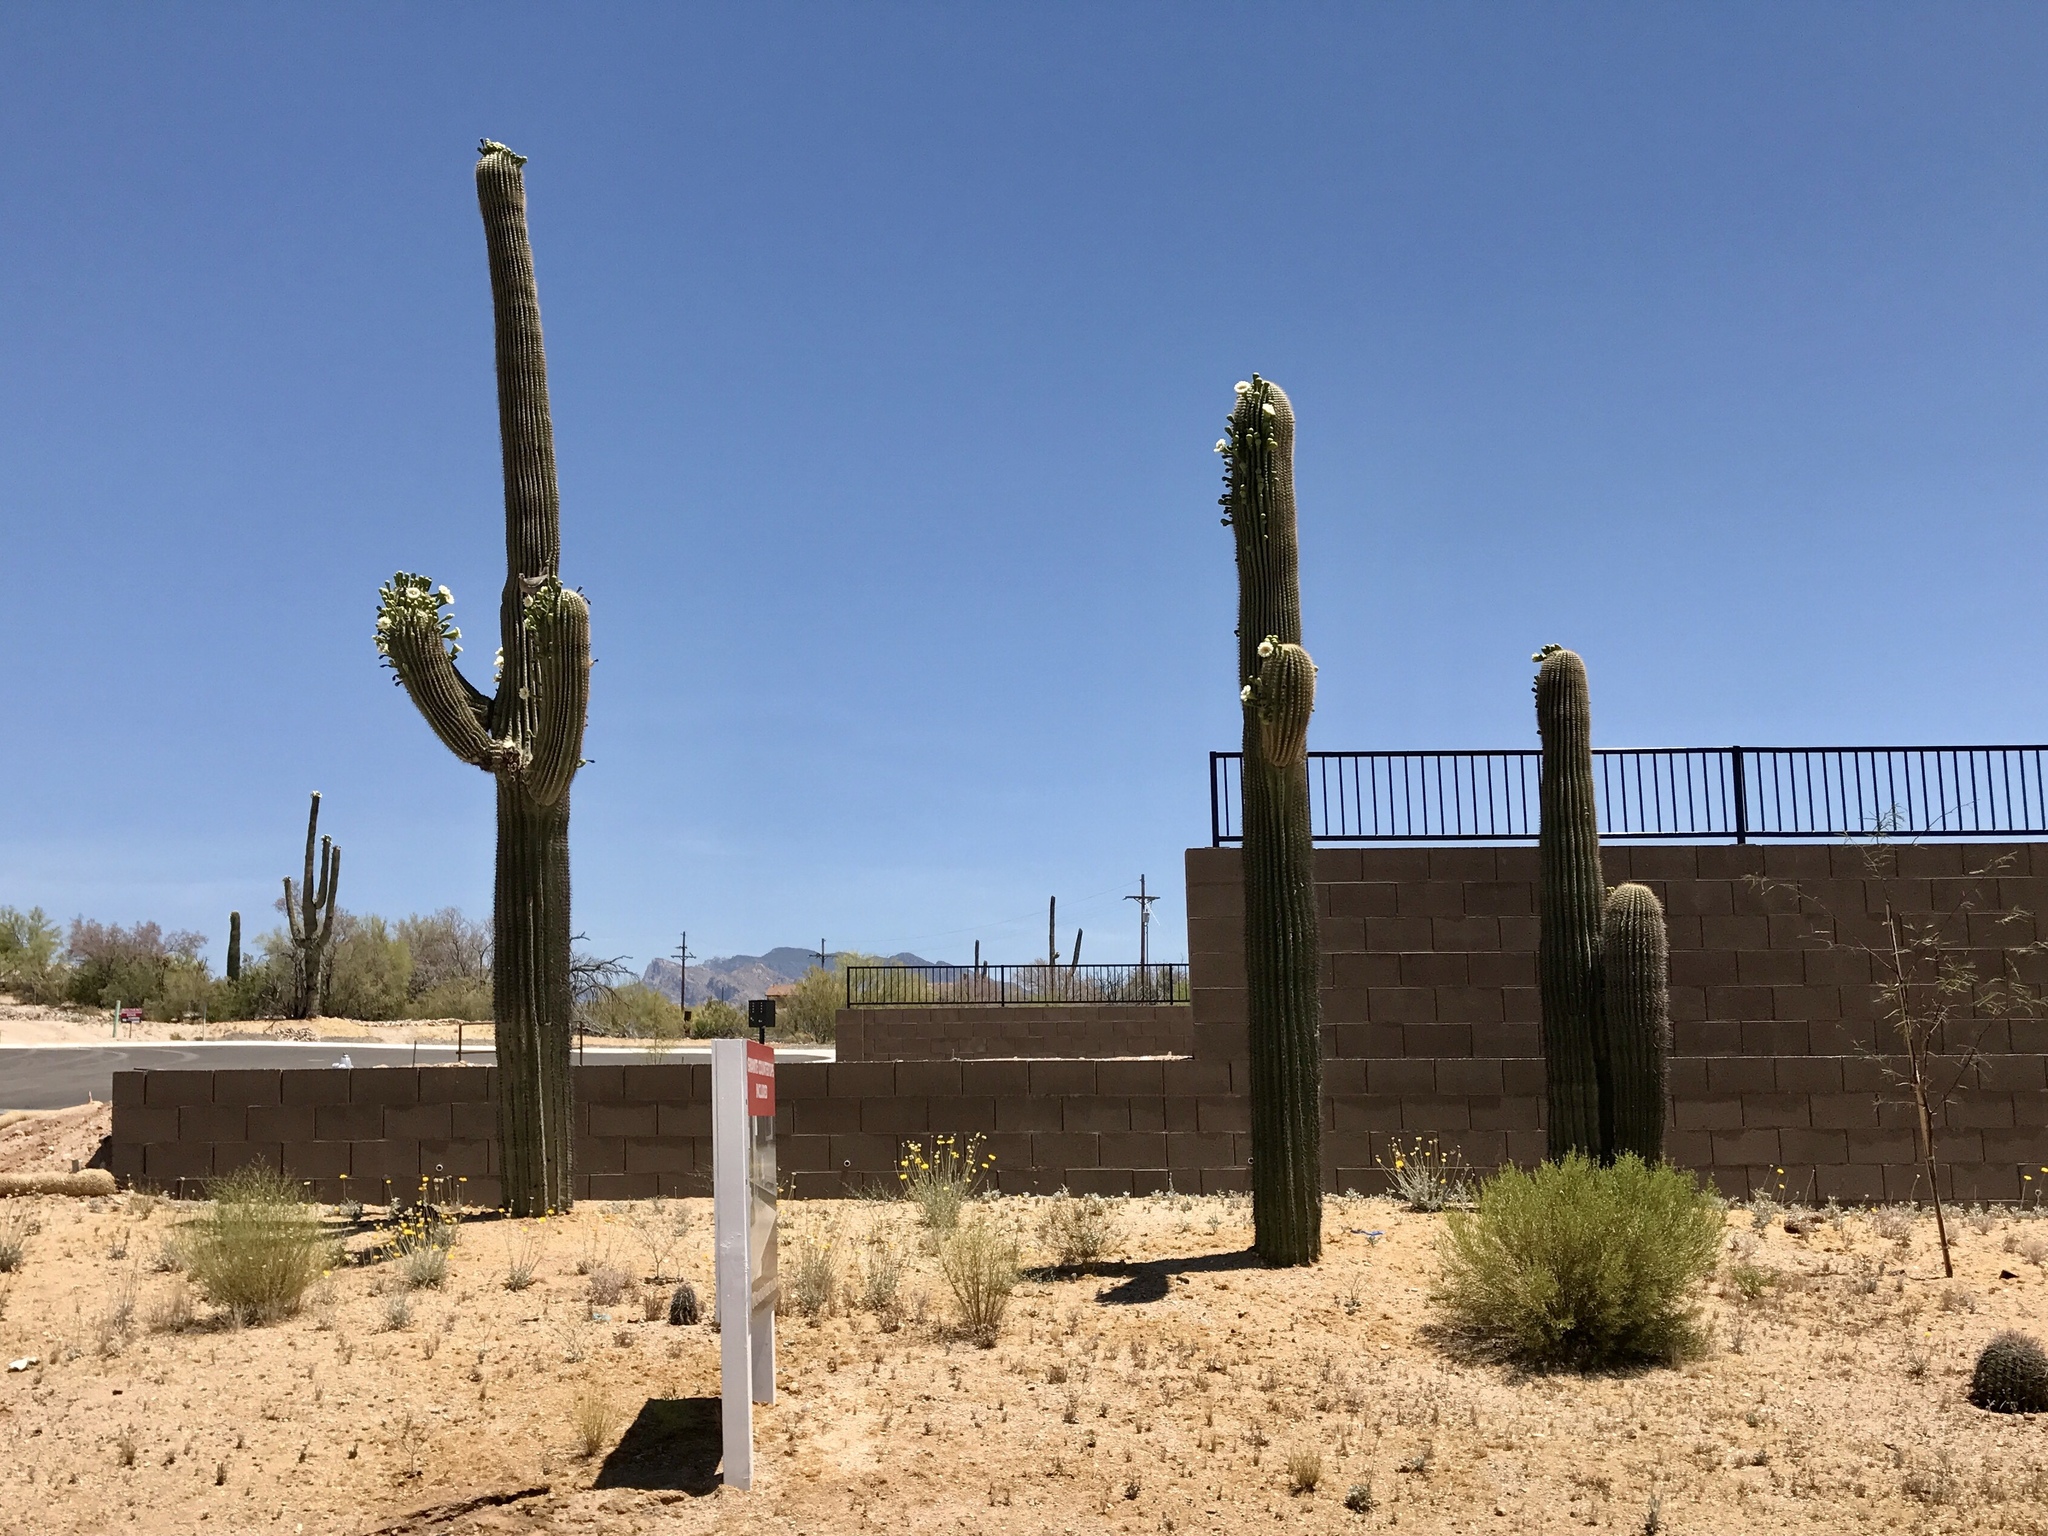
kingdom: Plantae
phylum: Tracheophyta
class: Magnoliopsida
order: Caryophyllales
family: Cactaceae
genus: Carnegiea
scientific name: Carnegiea gigantea
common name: Saguaro
